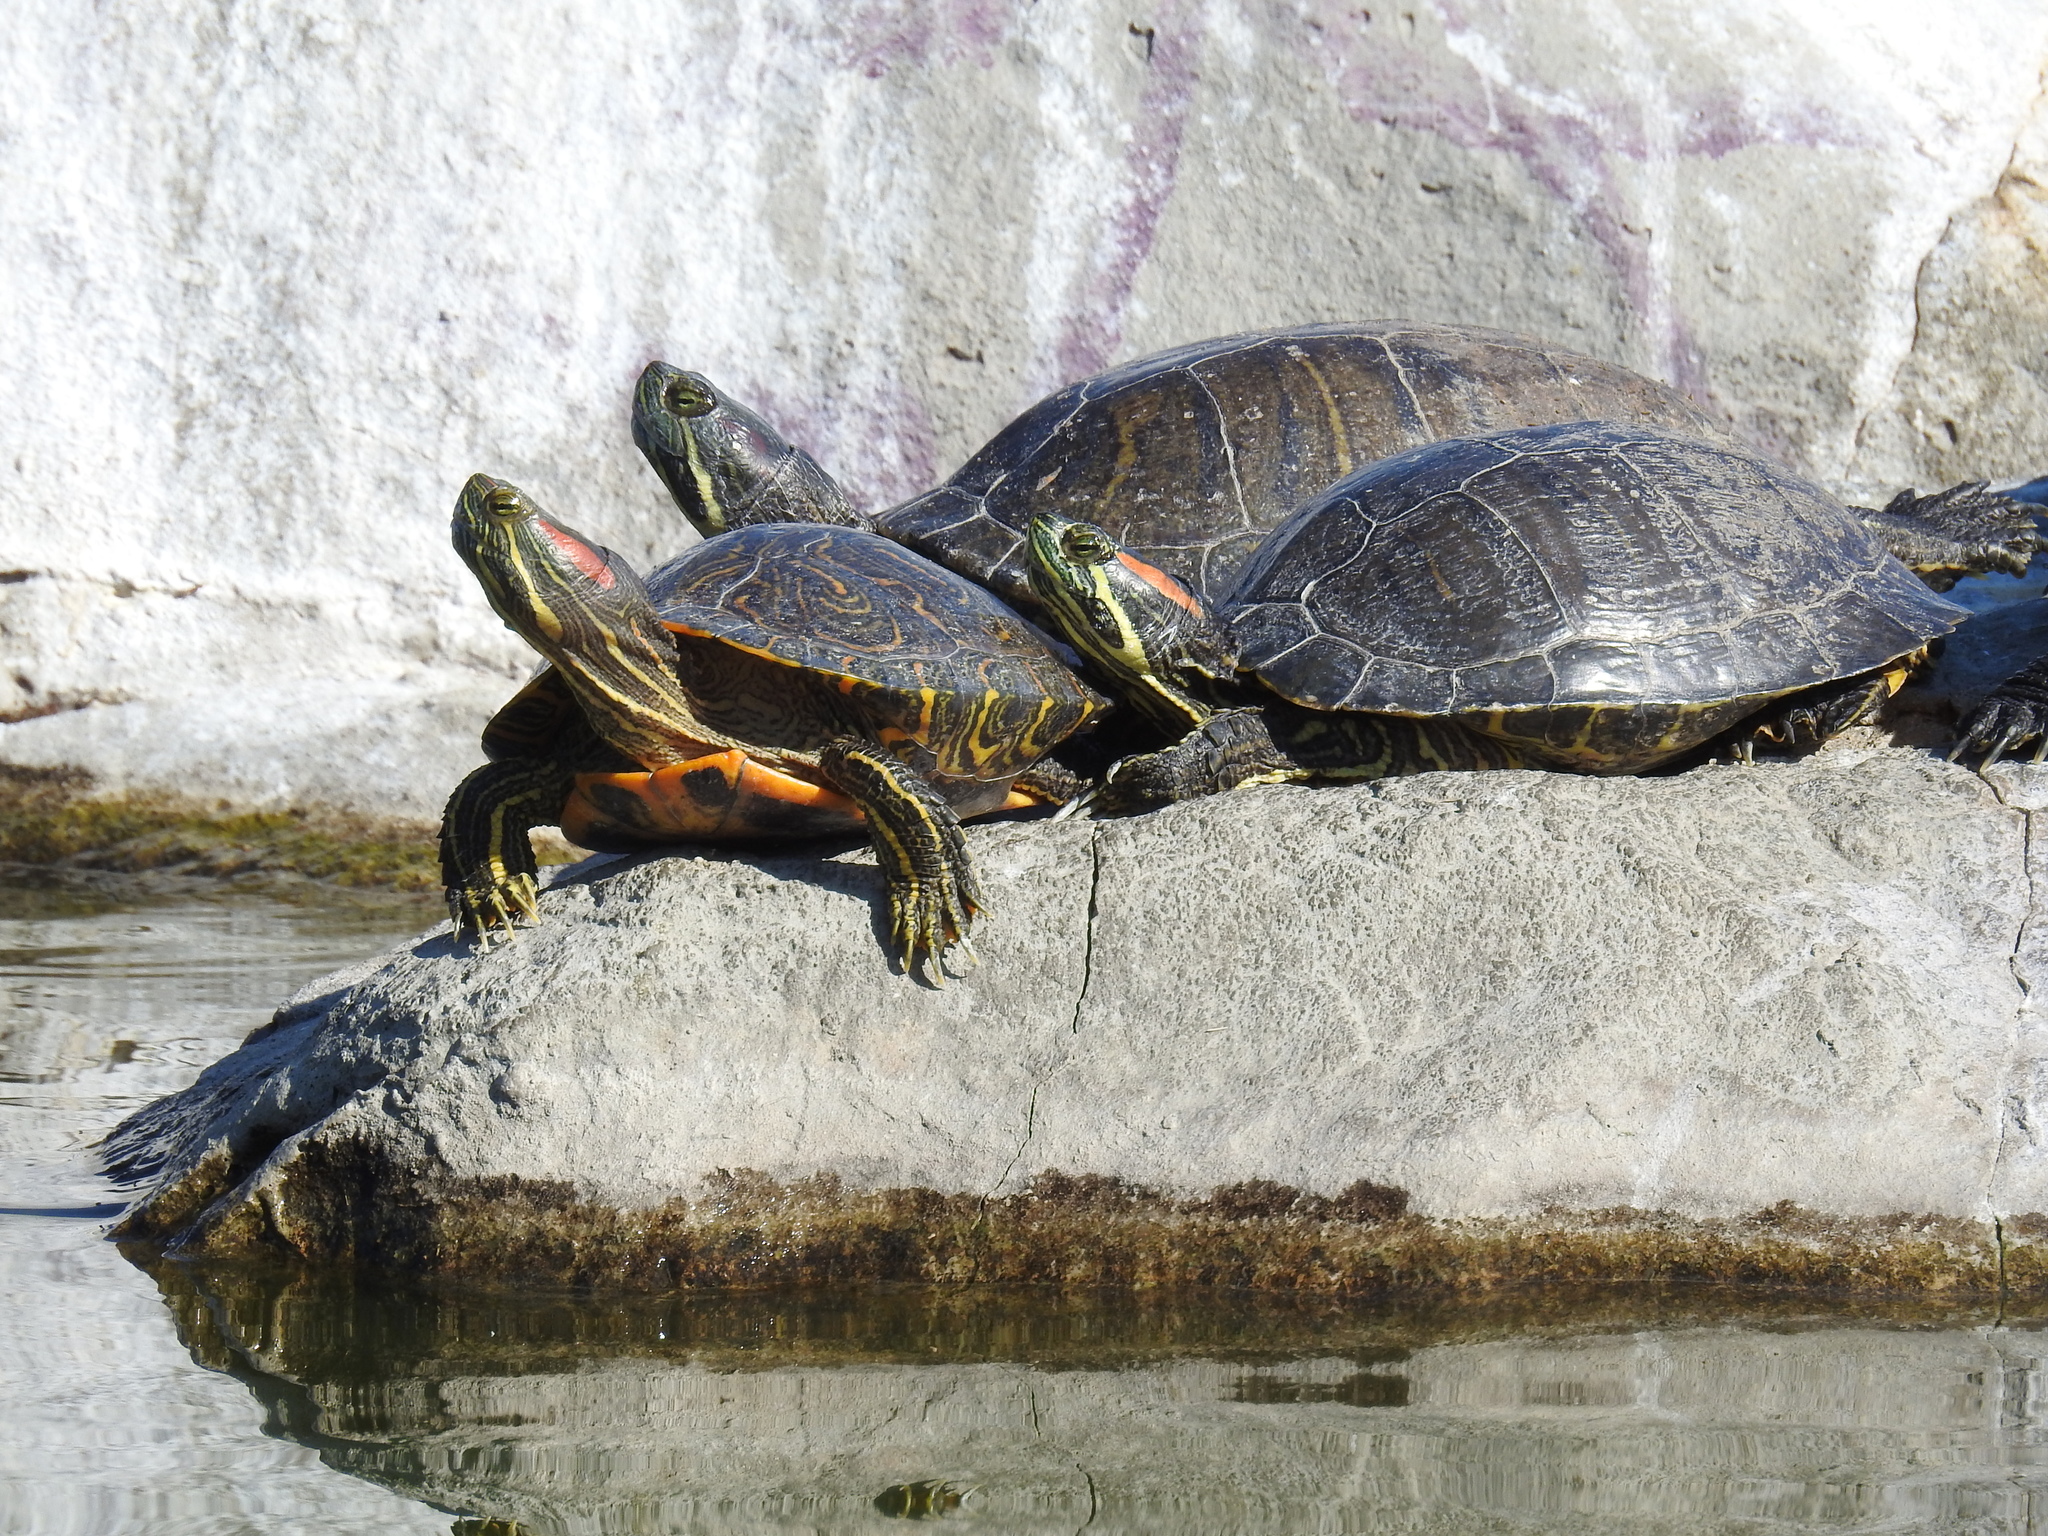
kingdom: Animalia
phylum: Chordata
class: Testudines
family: Emydidae
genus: Trachemys
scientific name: Trachemys scripta
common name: Slider
